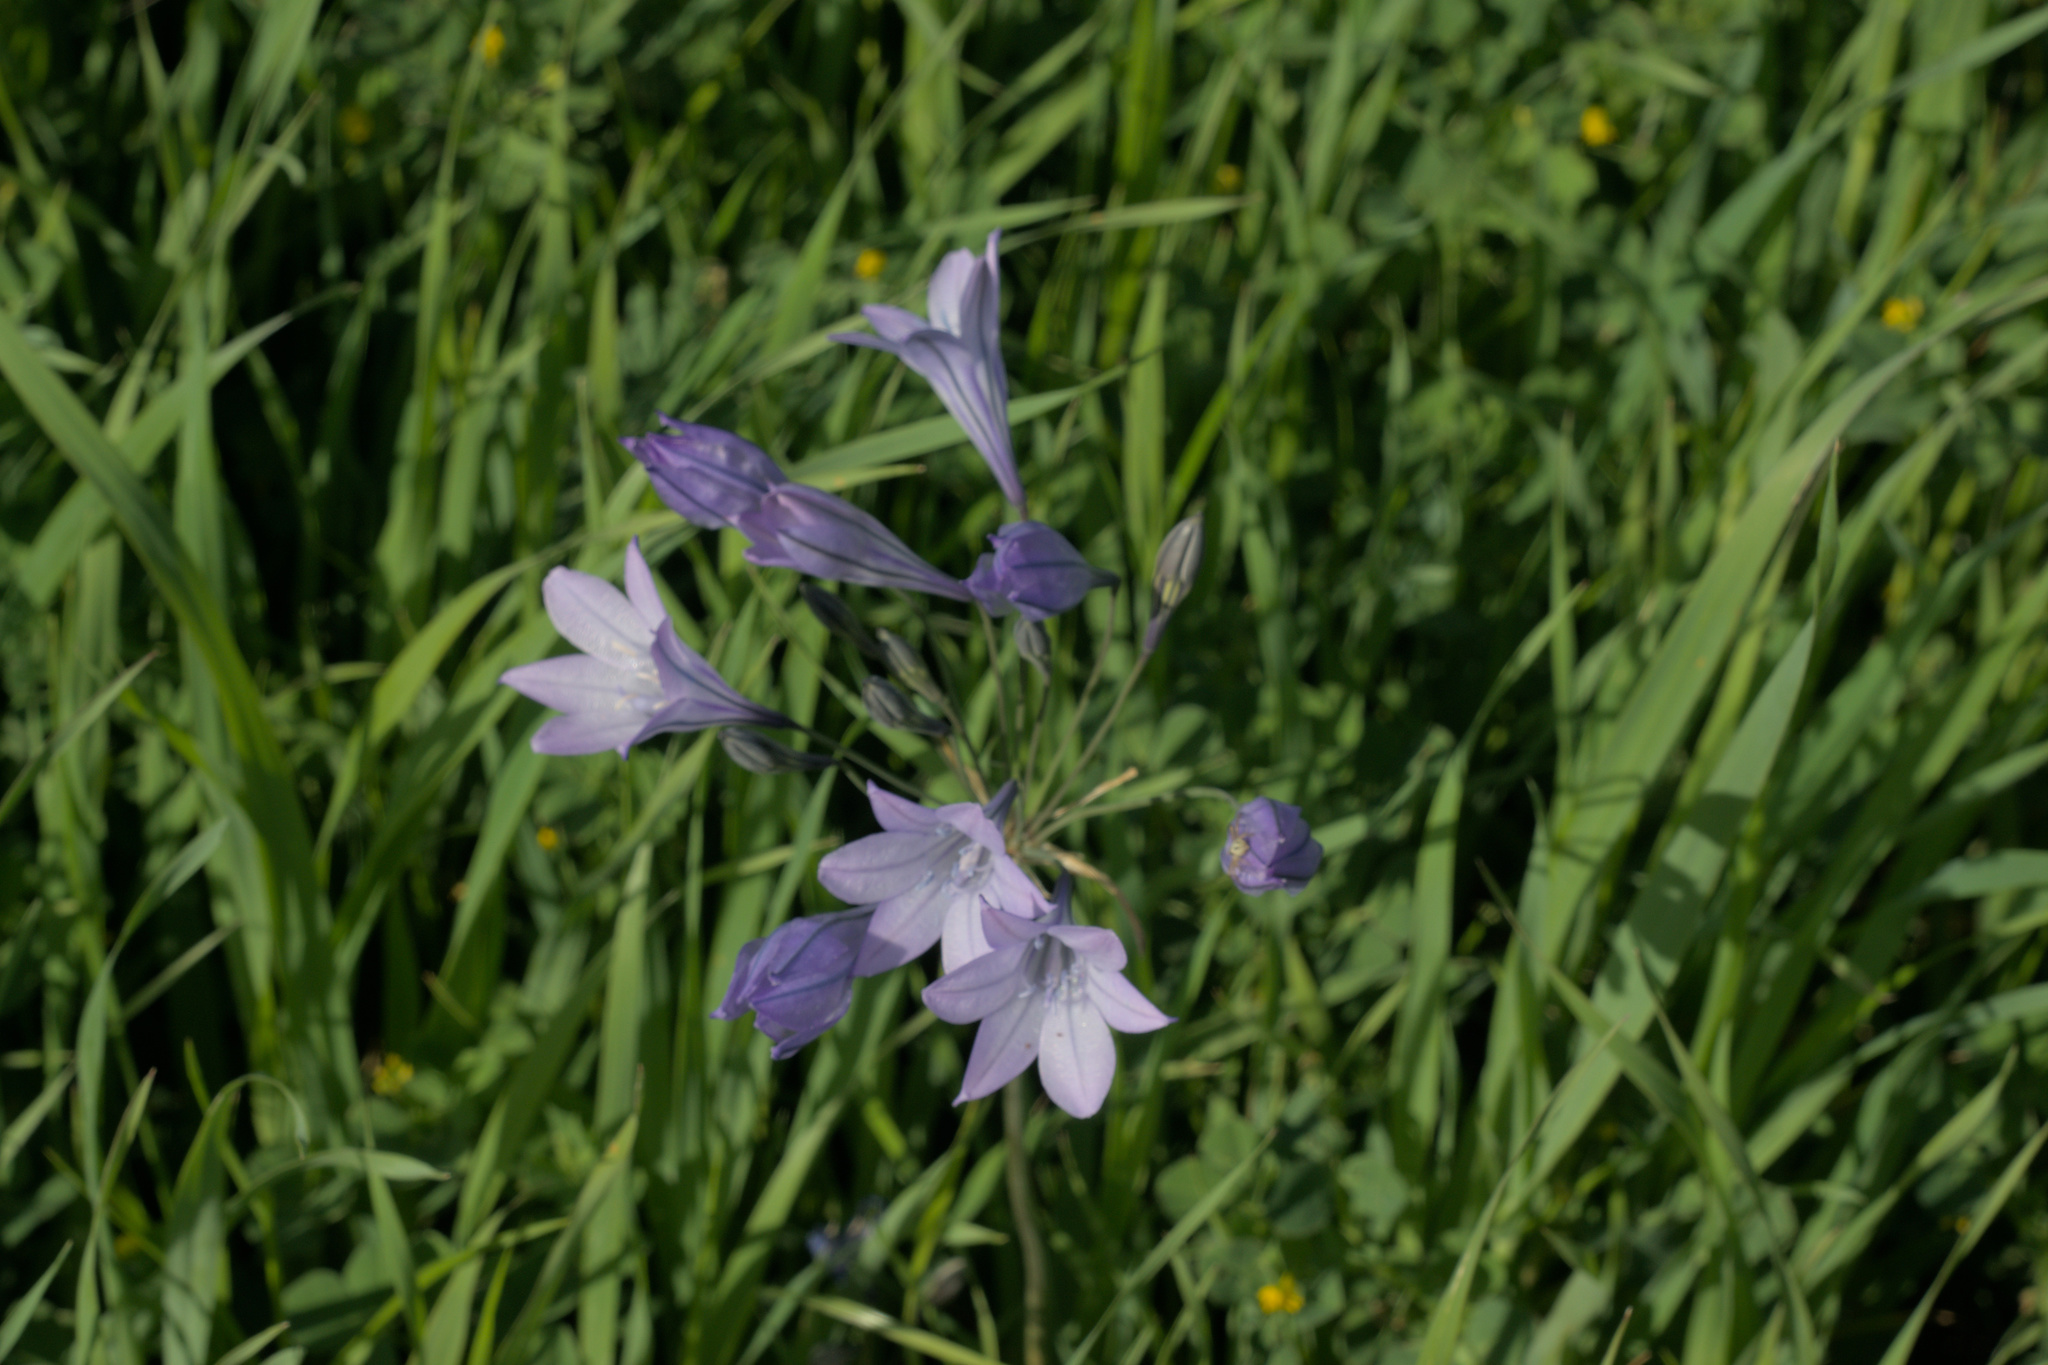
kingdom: Plantae
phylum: Tracheophyta
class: Liliopsida
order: Asparagales
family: Asparagaceae
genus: Triteleia
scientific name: Triteleia laxa
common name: Triplet-lily
